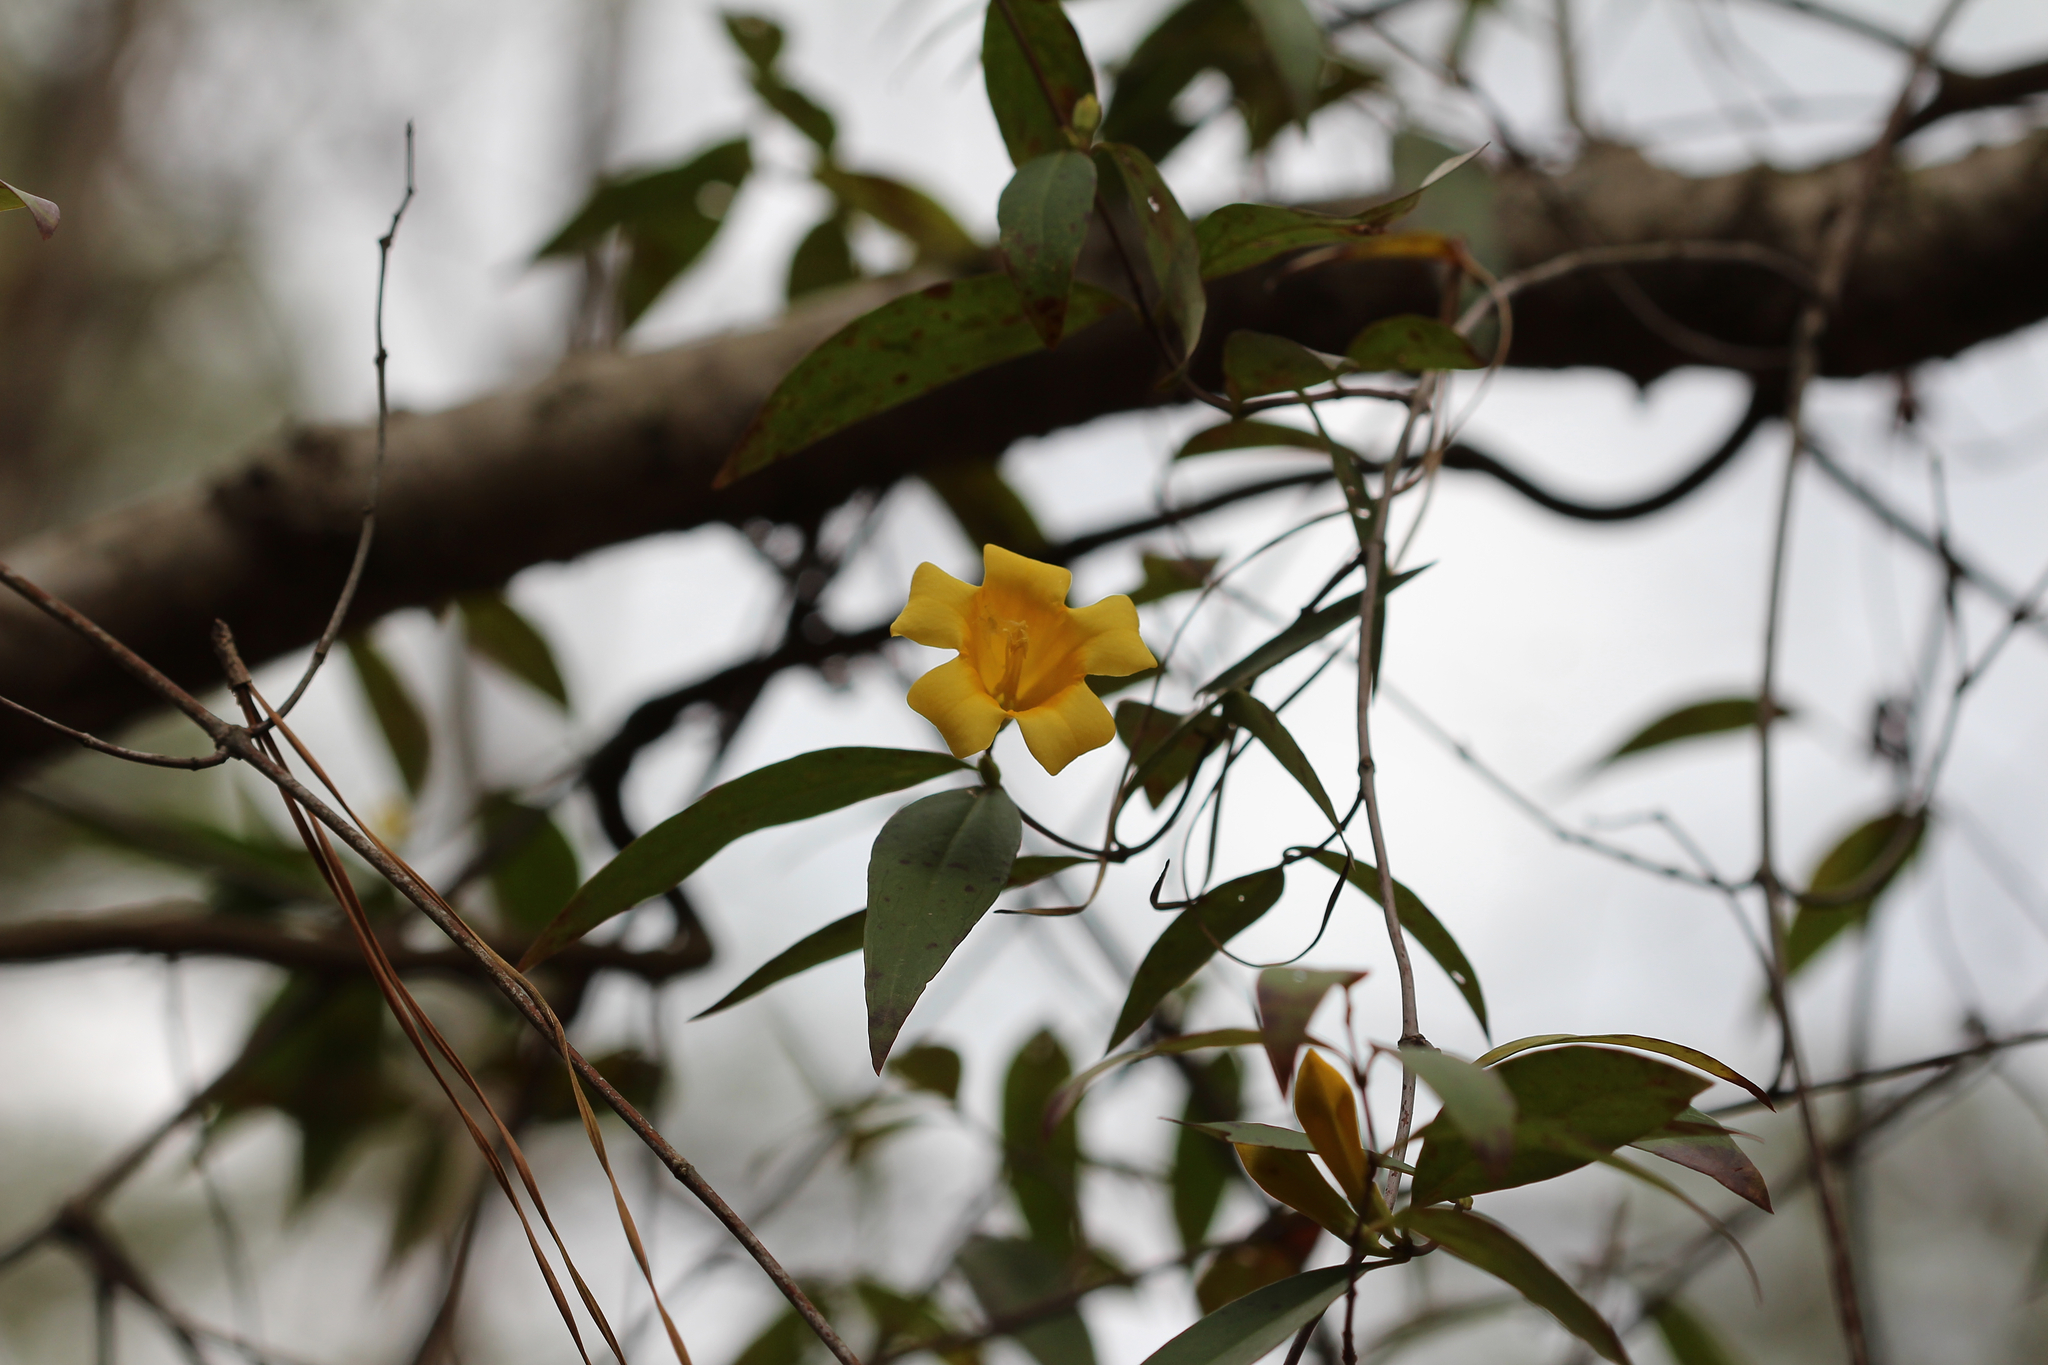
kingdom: Plantae
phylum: Tracheophyta
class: Magnoliopsida
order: Gentianales
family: Gelsemiaceae
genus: Gelsemium
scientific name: Gelsemium sempervirens
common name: Carolina-jasmine
